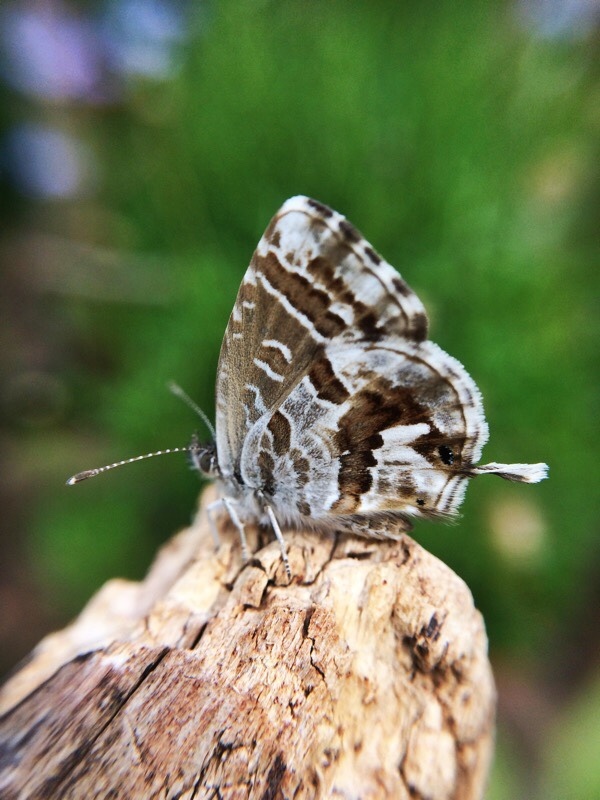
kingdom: Animalia
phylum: Arthropoda
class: Insecta
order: Lepidoptera
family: Lycaenidae
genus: Cacyreus
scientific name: Cacyreus marshalli
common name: Geranium bronze
